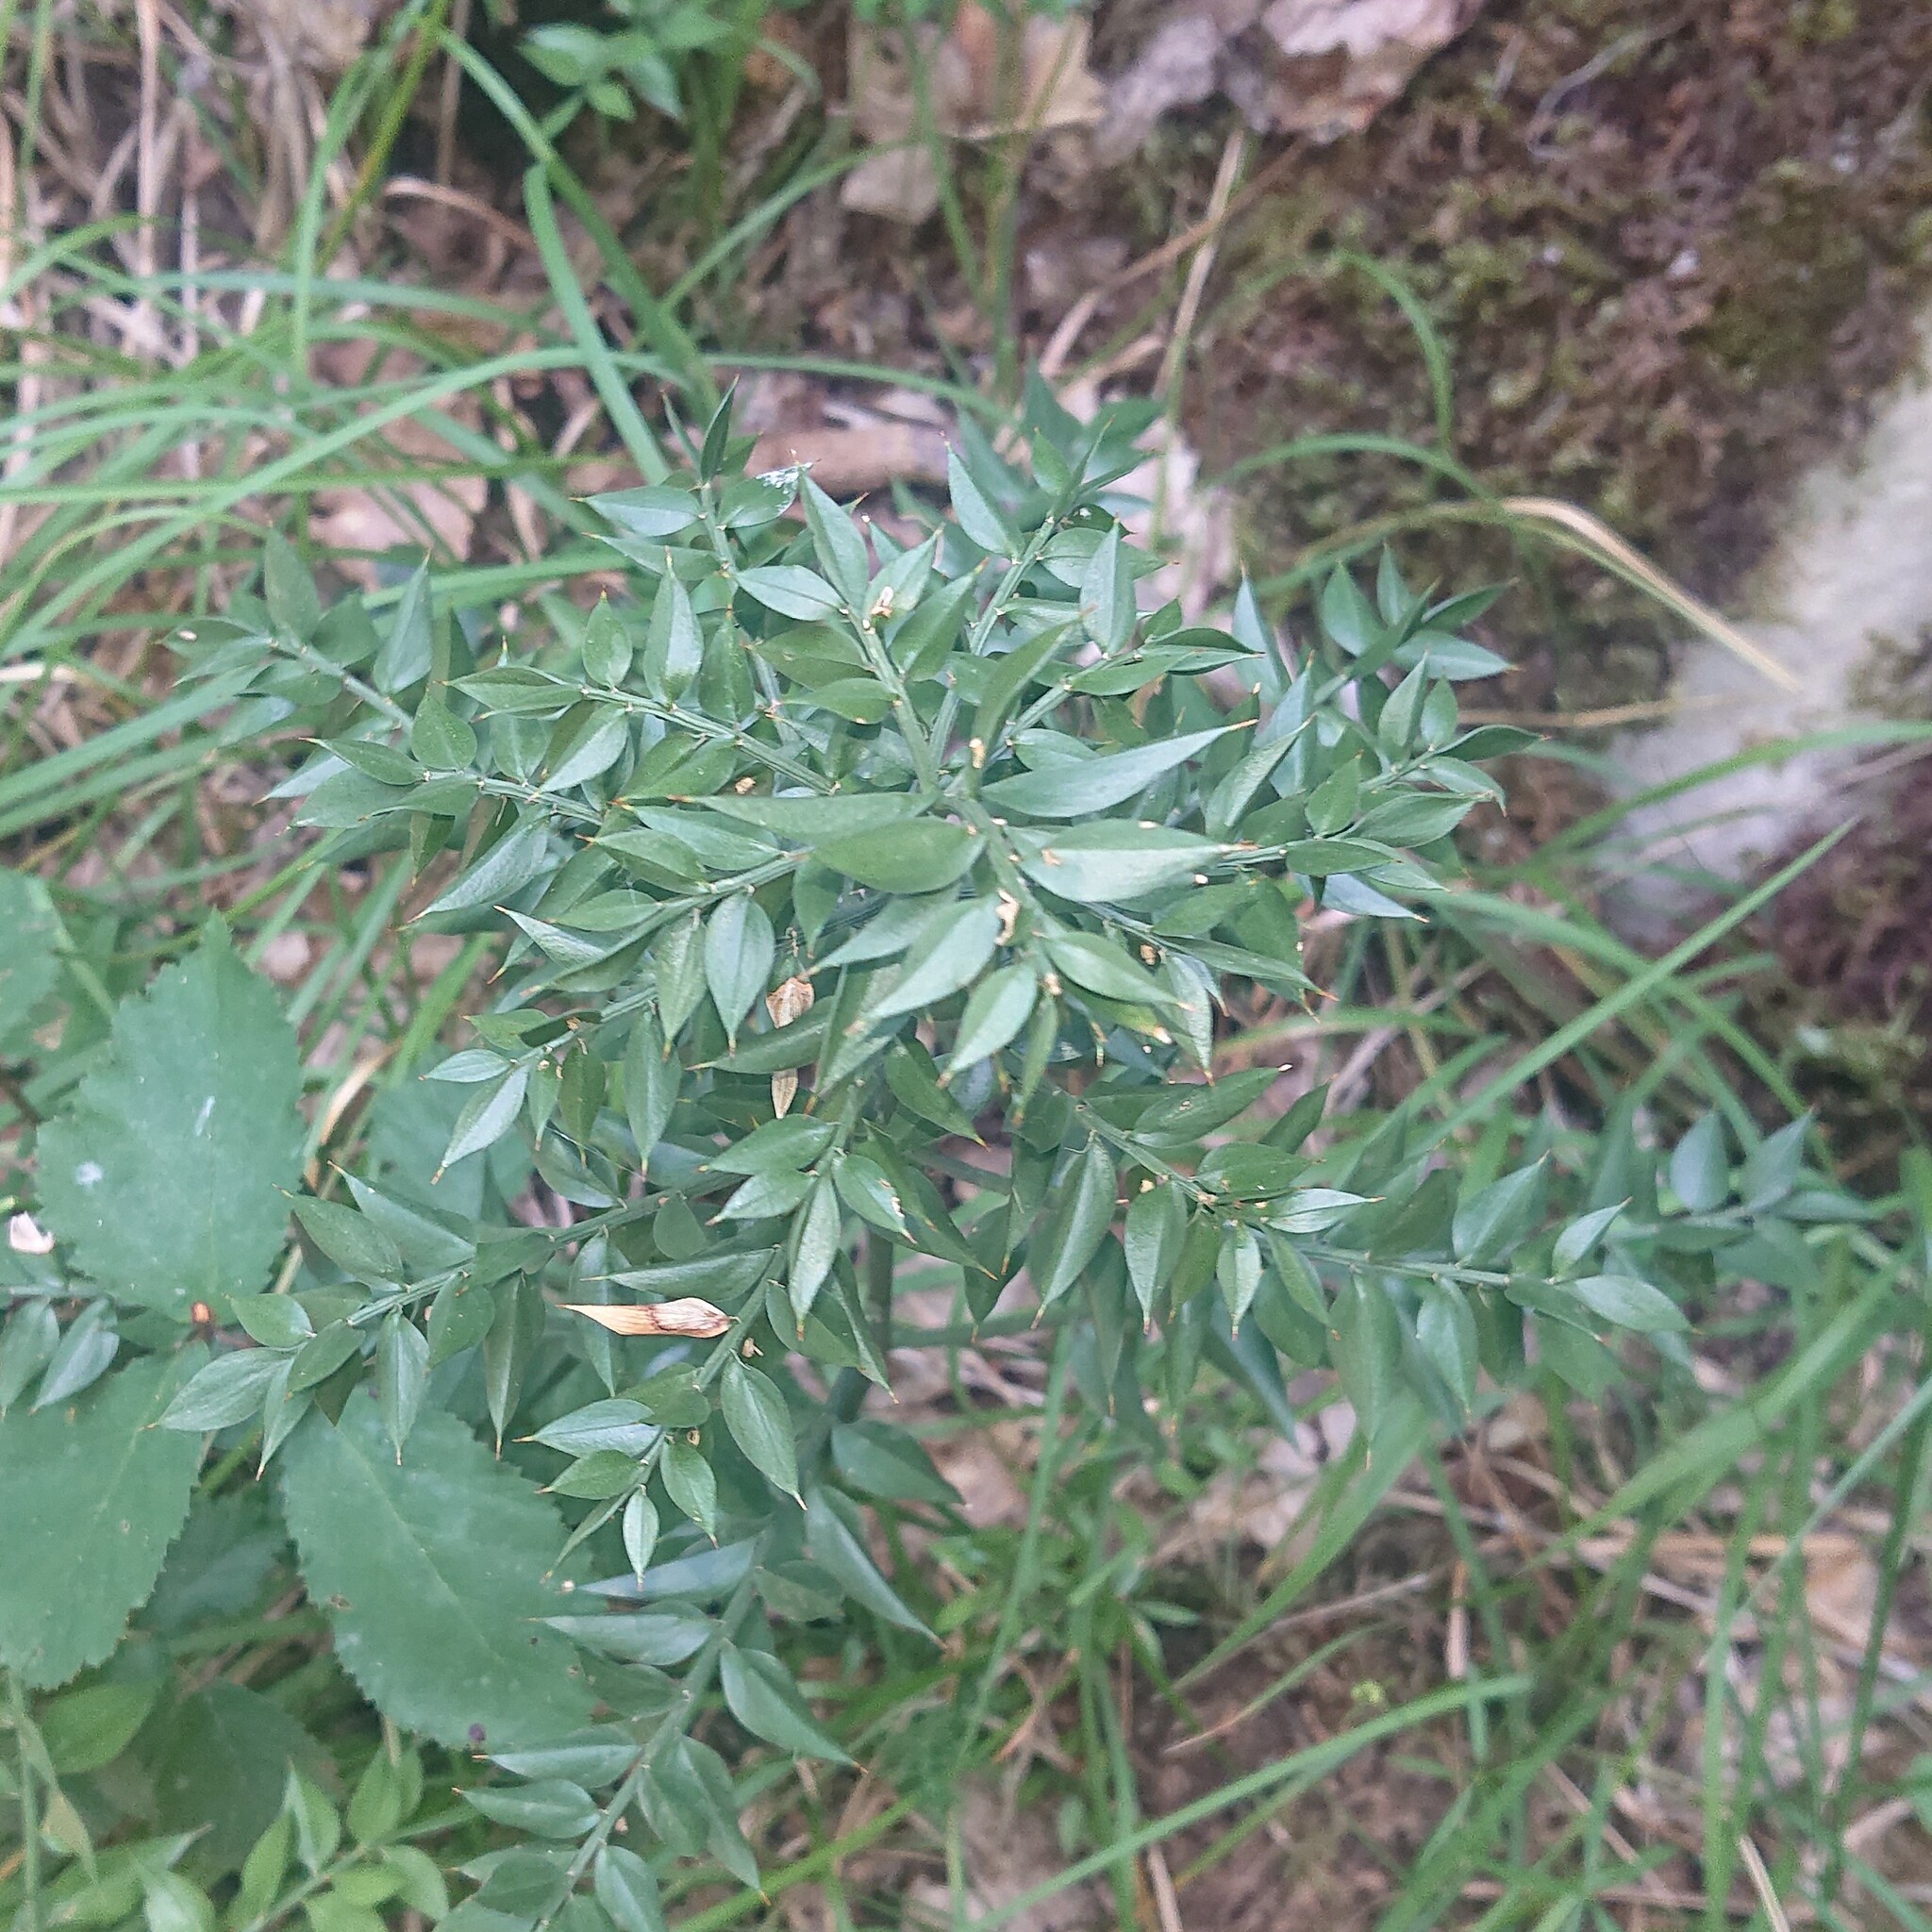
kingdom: Plantae
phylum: Tracheophyta
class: Liliopsida
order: Asparagales
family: Asparagaceae
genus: Ruscus
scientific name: Ruscus aculeatus
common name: Butcher's-broom
